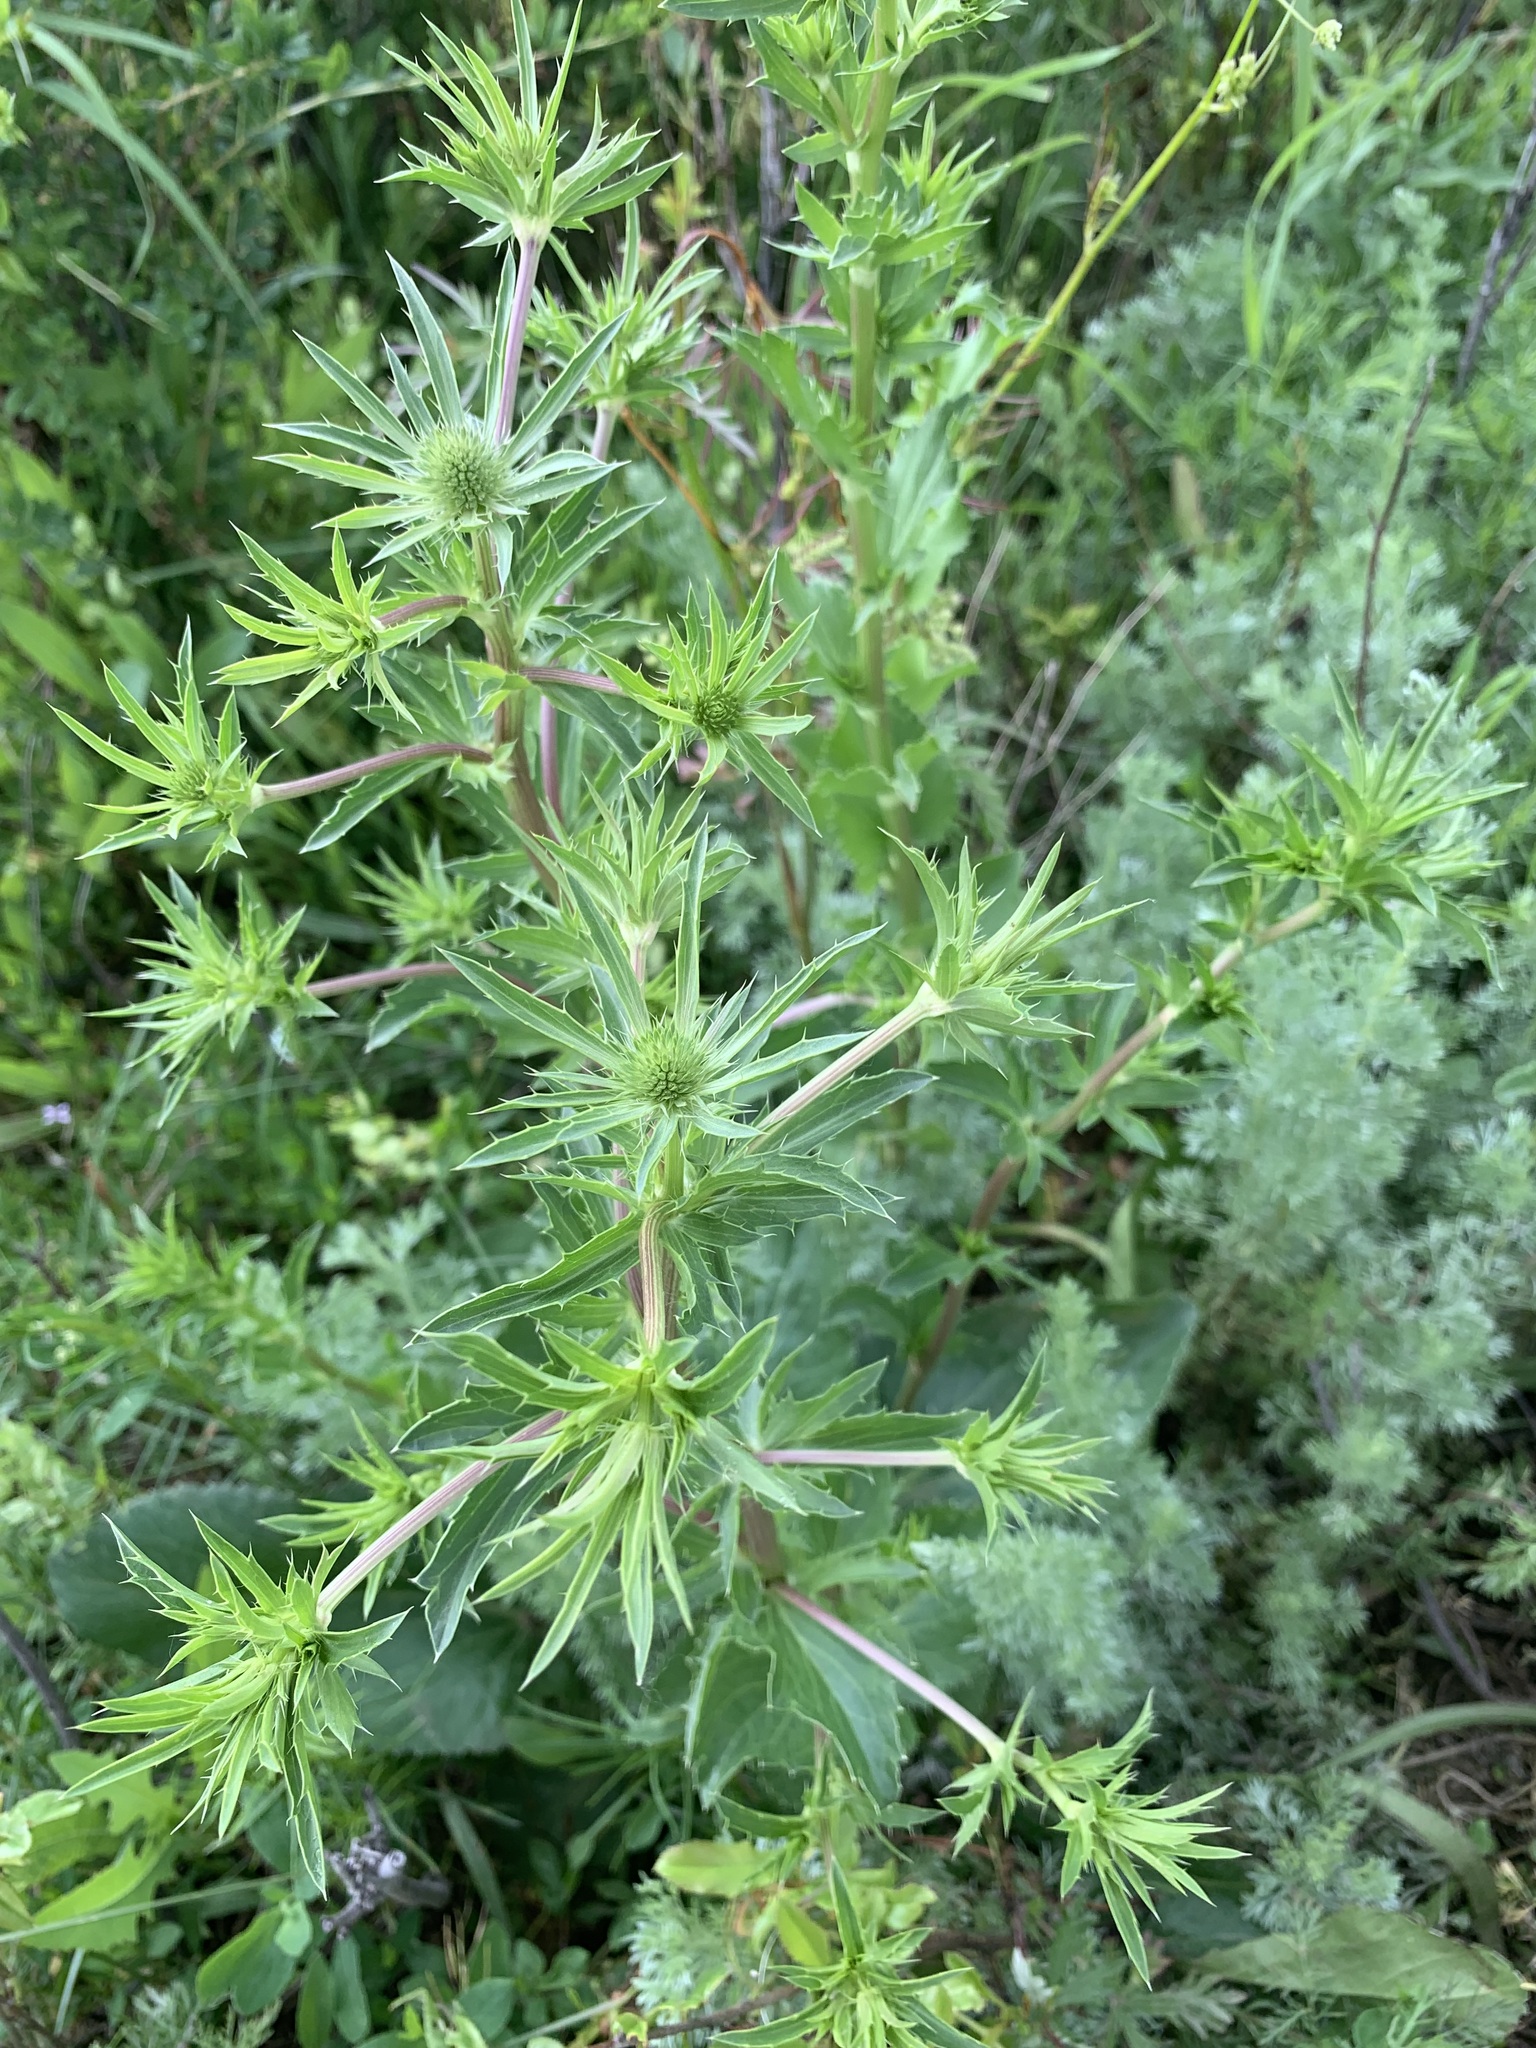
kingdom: Plantae
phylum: Tracheophyta
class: Magnoliopsida
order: Apiales
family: Apiaceae
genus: Eryngium
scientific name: Eryngium planum
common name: Blue eryngo
